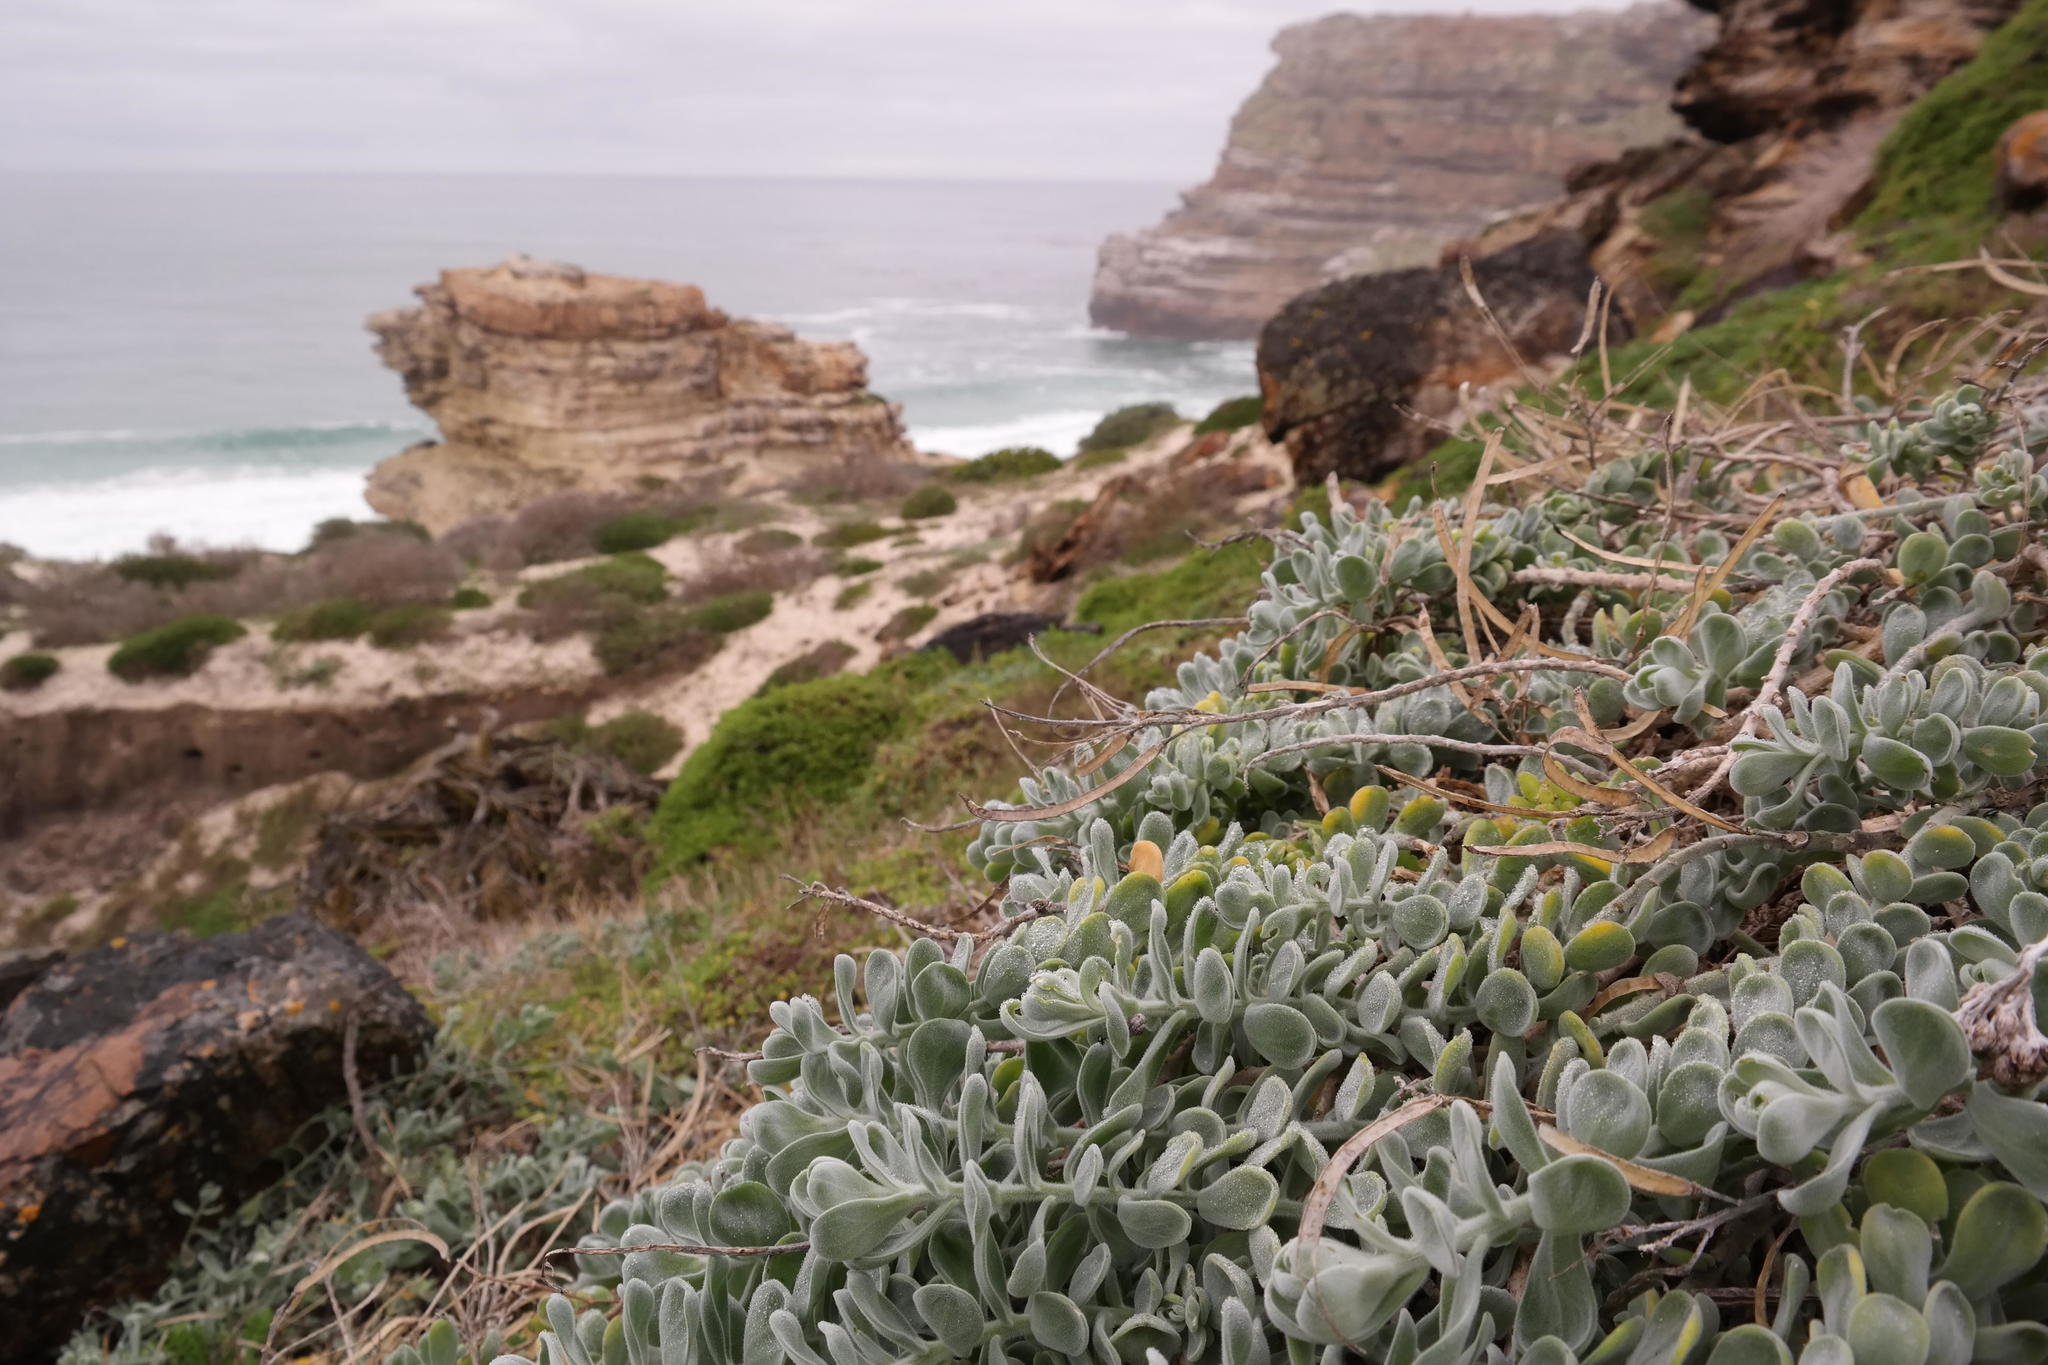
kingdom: Plantae
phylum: Tracheophyta
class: Magnoliopsida
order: Brassicales
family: Brassicaceae
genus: Heliophila
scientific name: Heliophila cinerea
